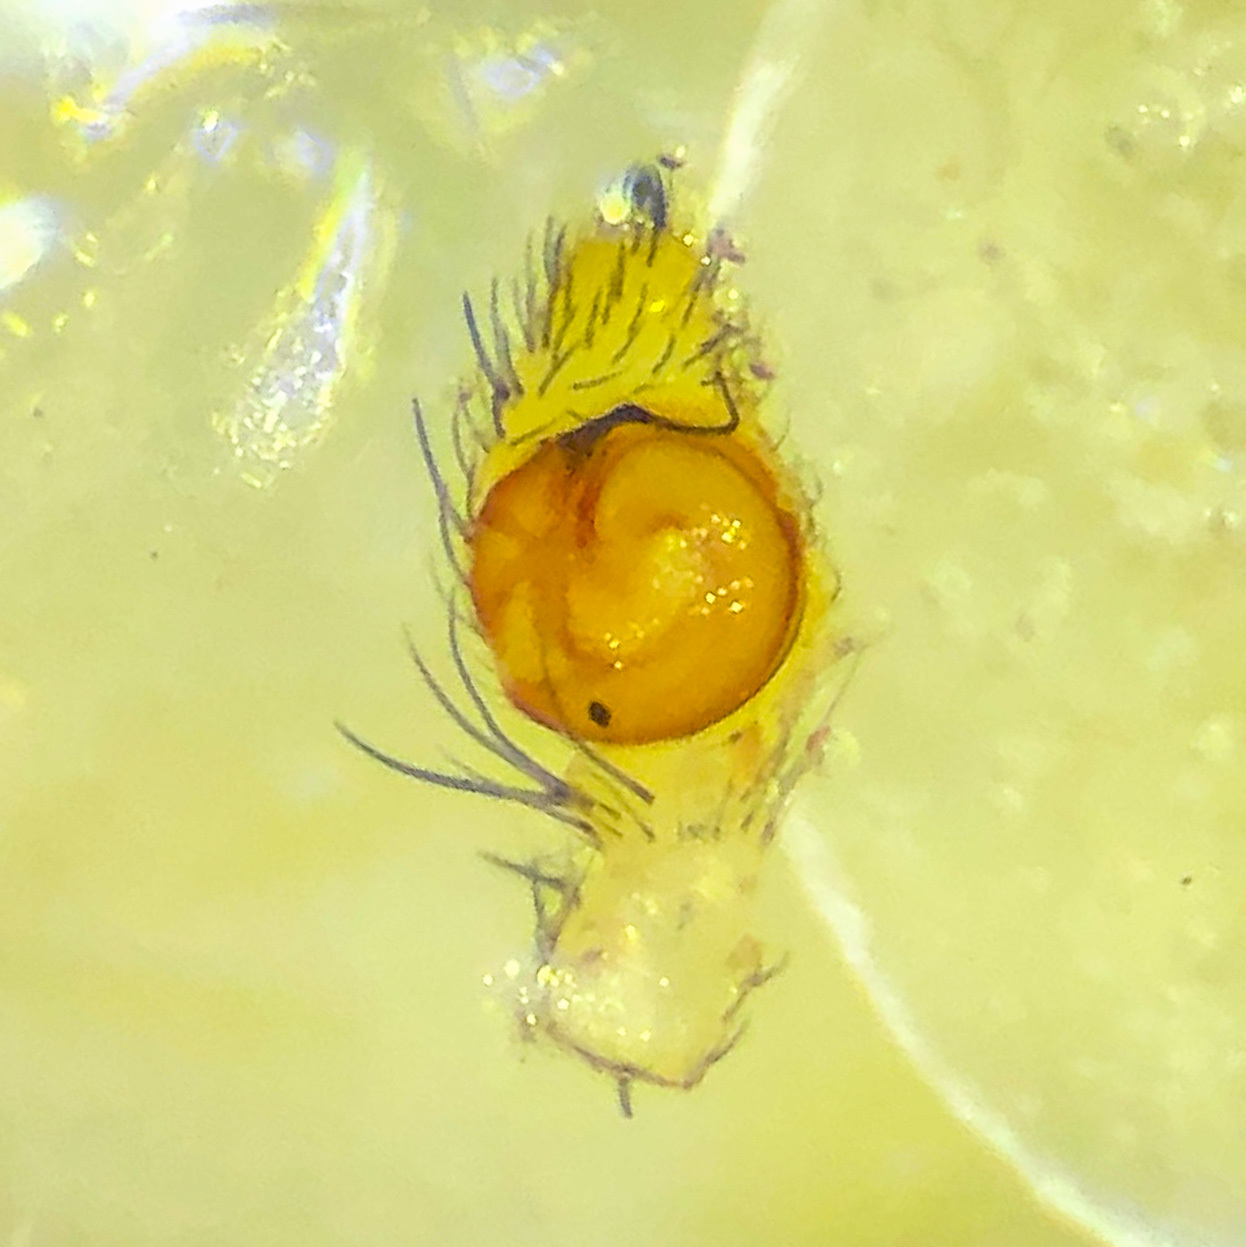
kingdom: Animalia
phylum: Arthropoda
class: Arachnida
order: Araneae
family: Thomisidae
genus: Mecaphesa
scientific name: Mecaphesa dubia
